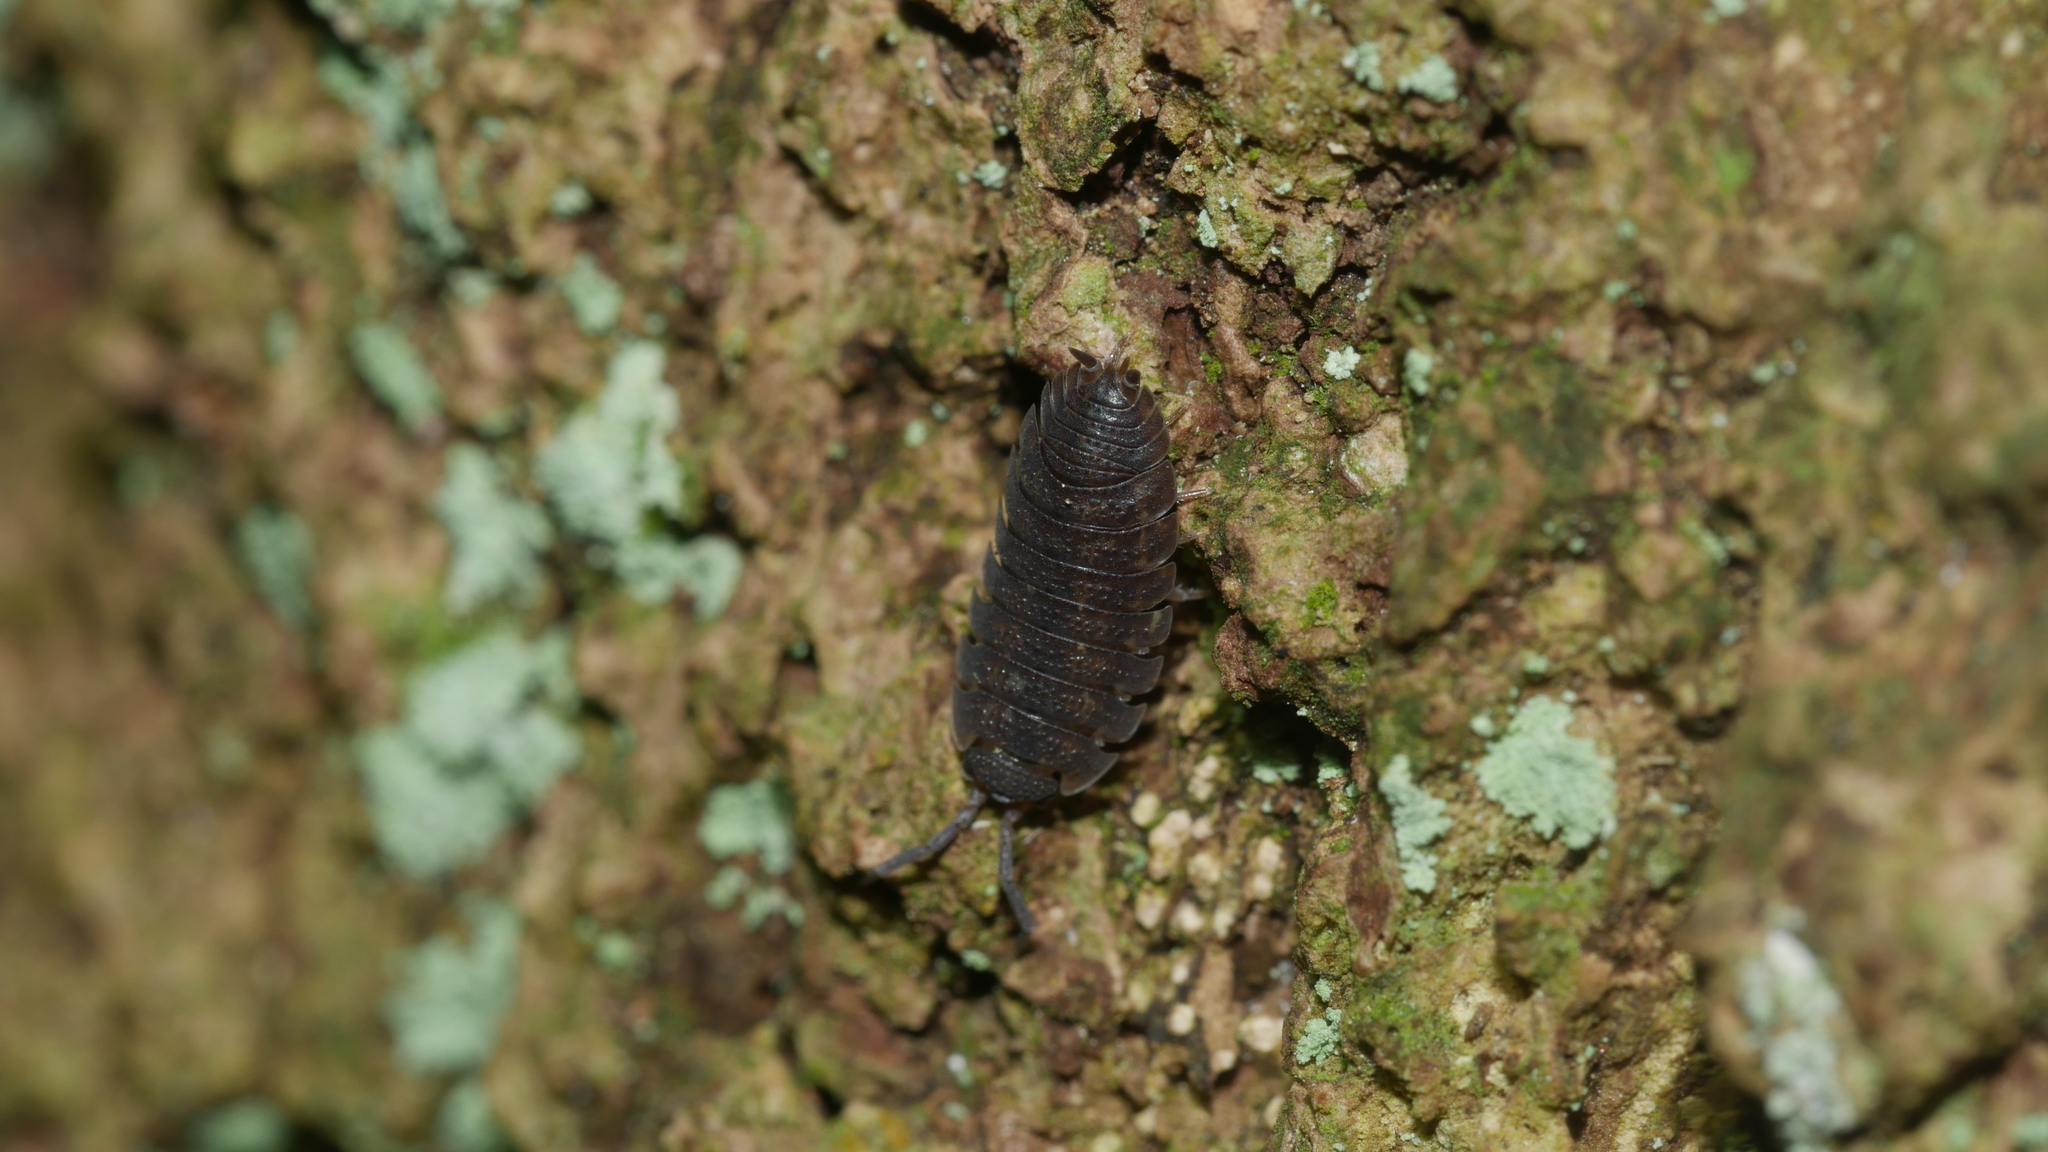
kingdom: Animalia
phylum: Arthropoda
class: Malacostraca
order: Isopoda
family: Porcellionidae
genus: Porcellio
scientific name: Porcellio scaber
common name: Common rough woodlouse
